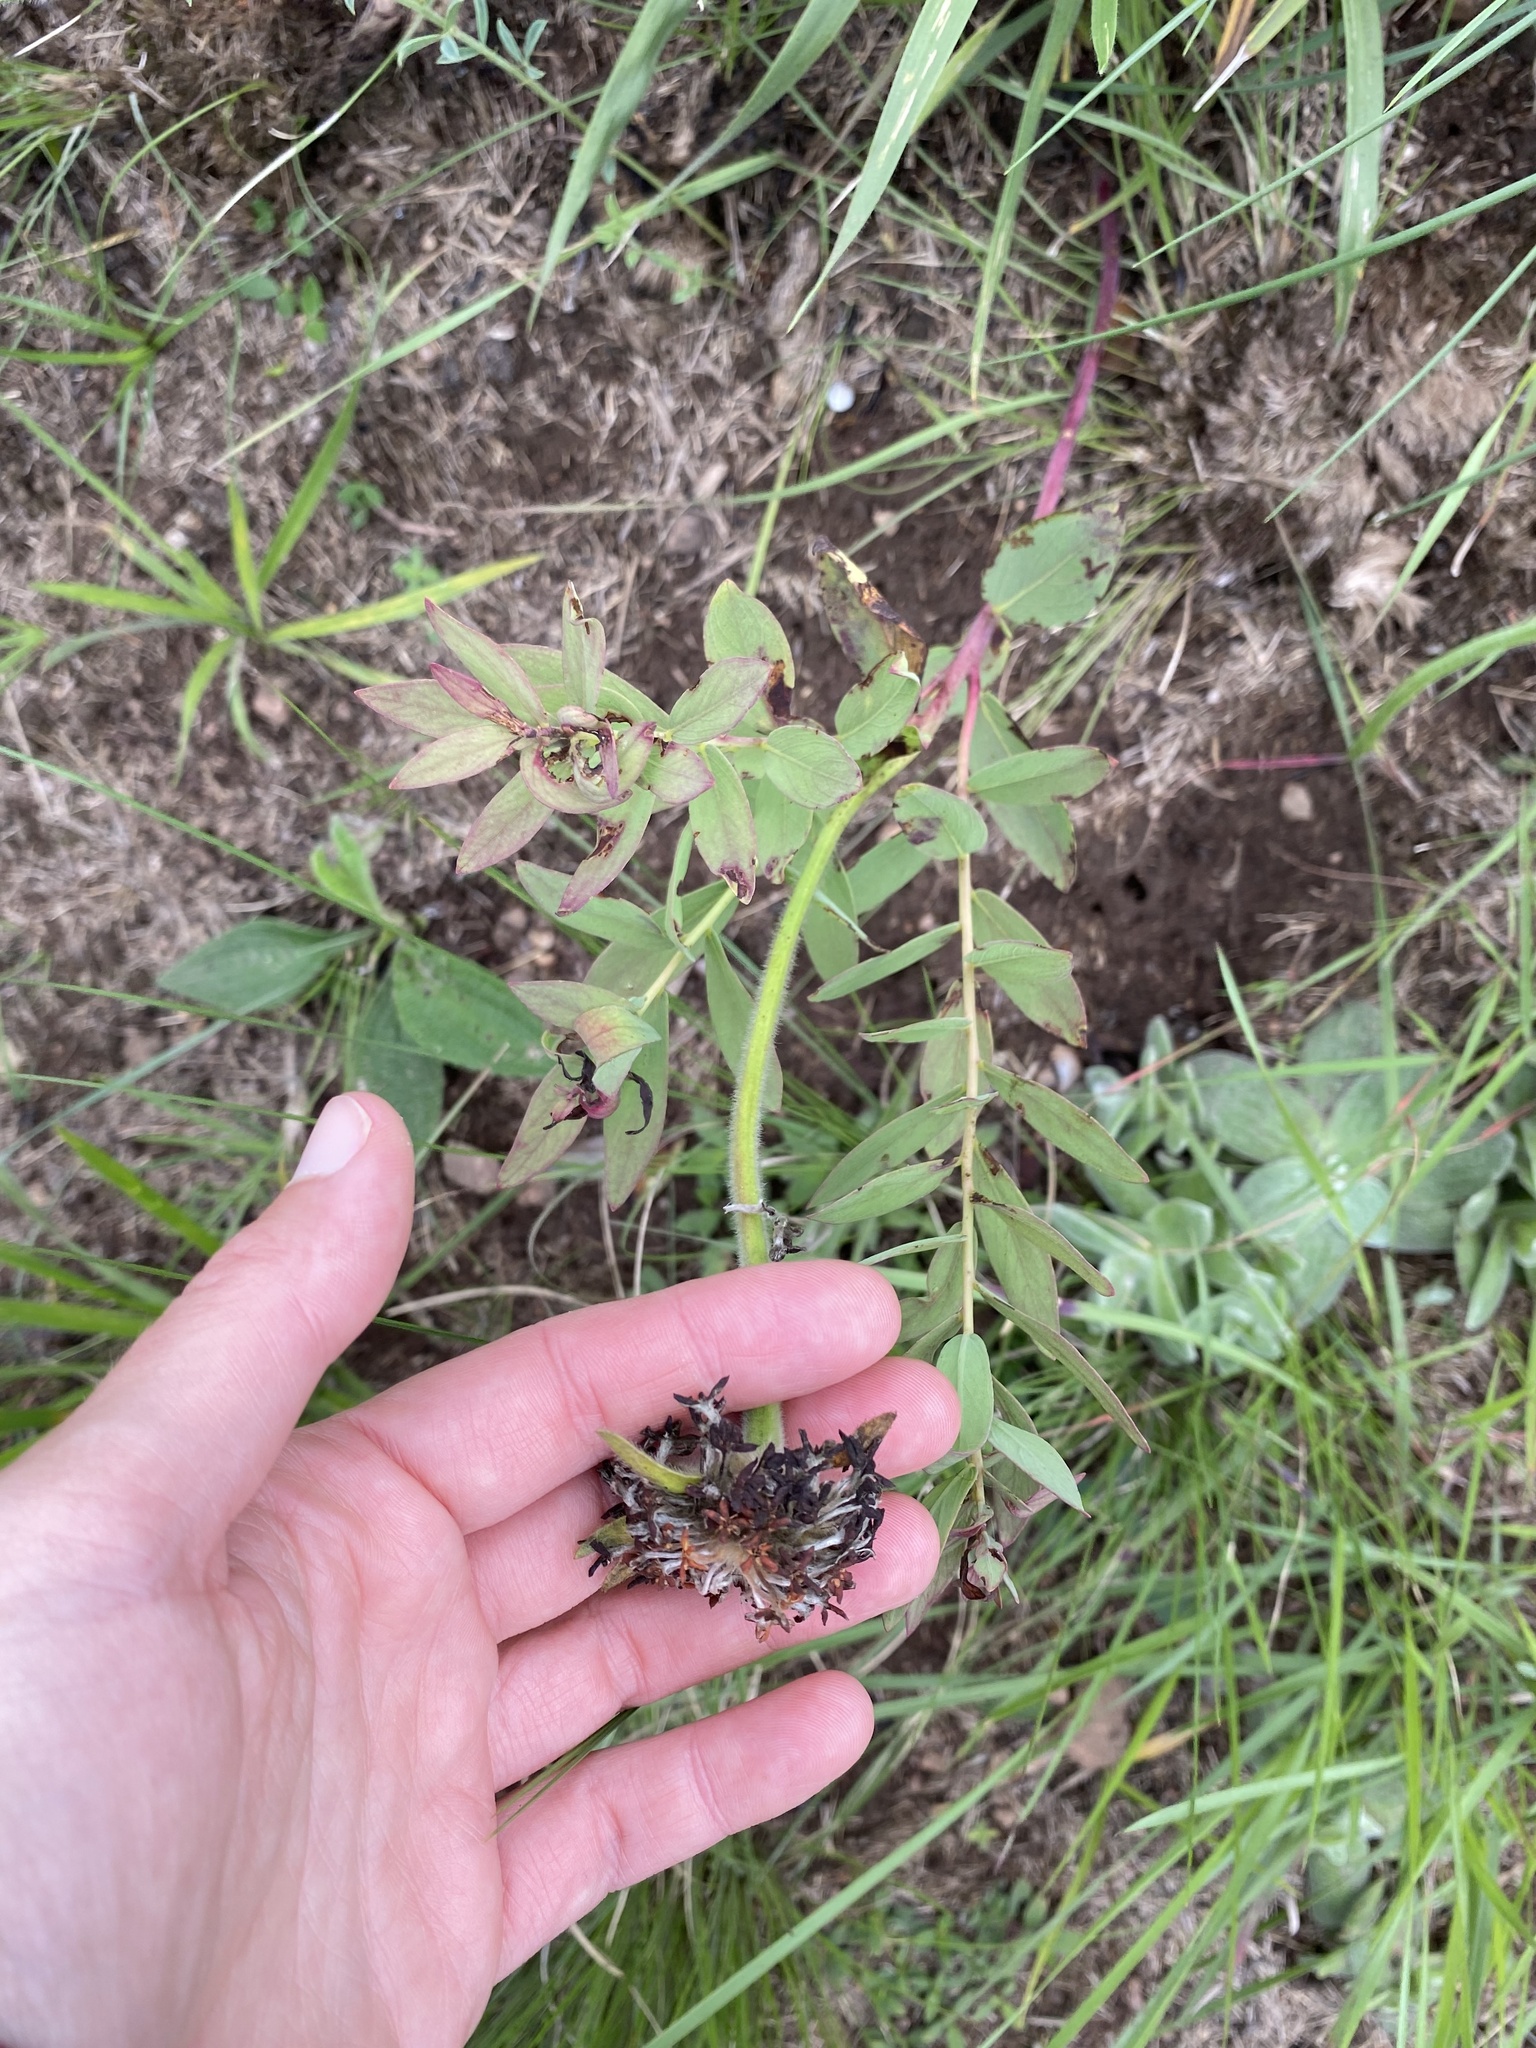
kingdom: Plantae
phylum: Tracheophyta
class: Magnoliopsida
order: Malvales
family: Thymelaeaceae
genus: Gnidia
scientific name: Gnidia kraussiana
